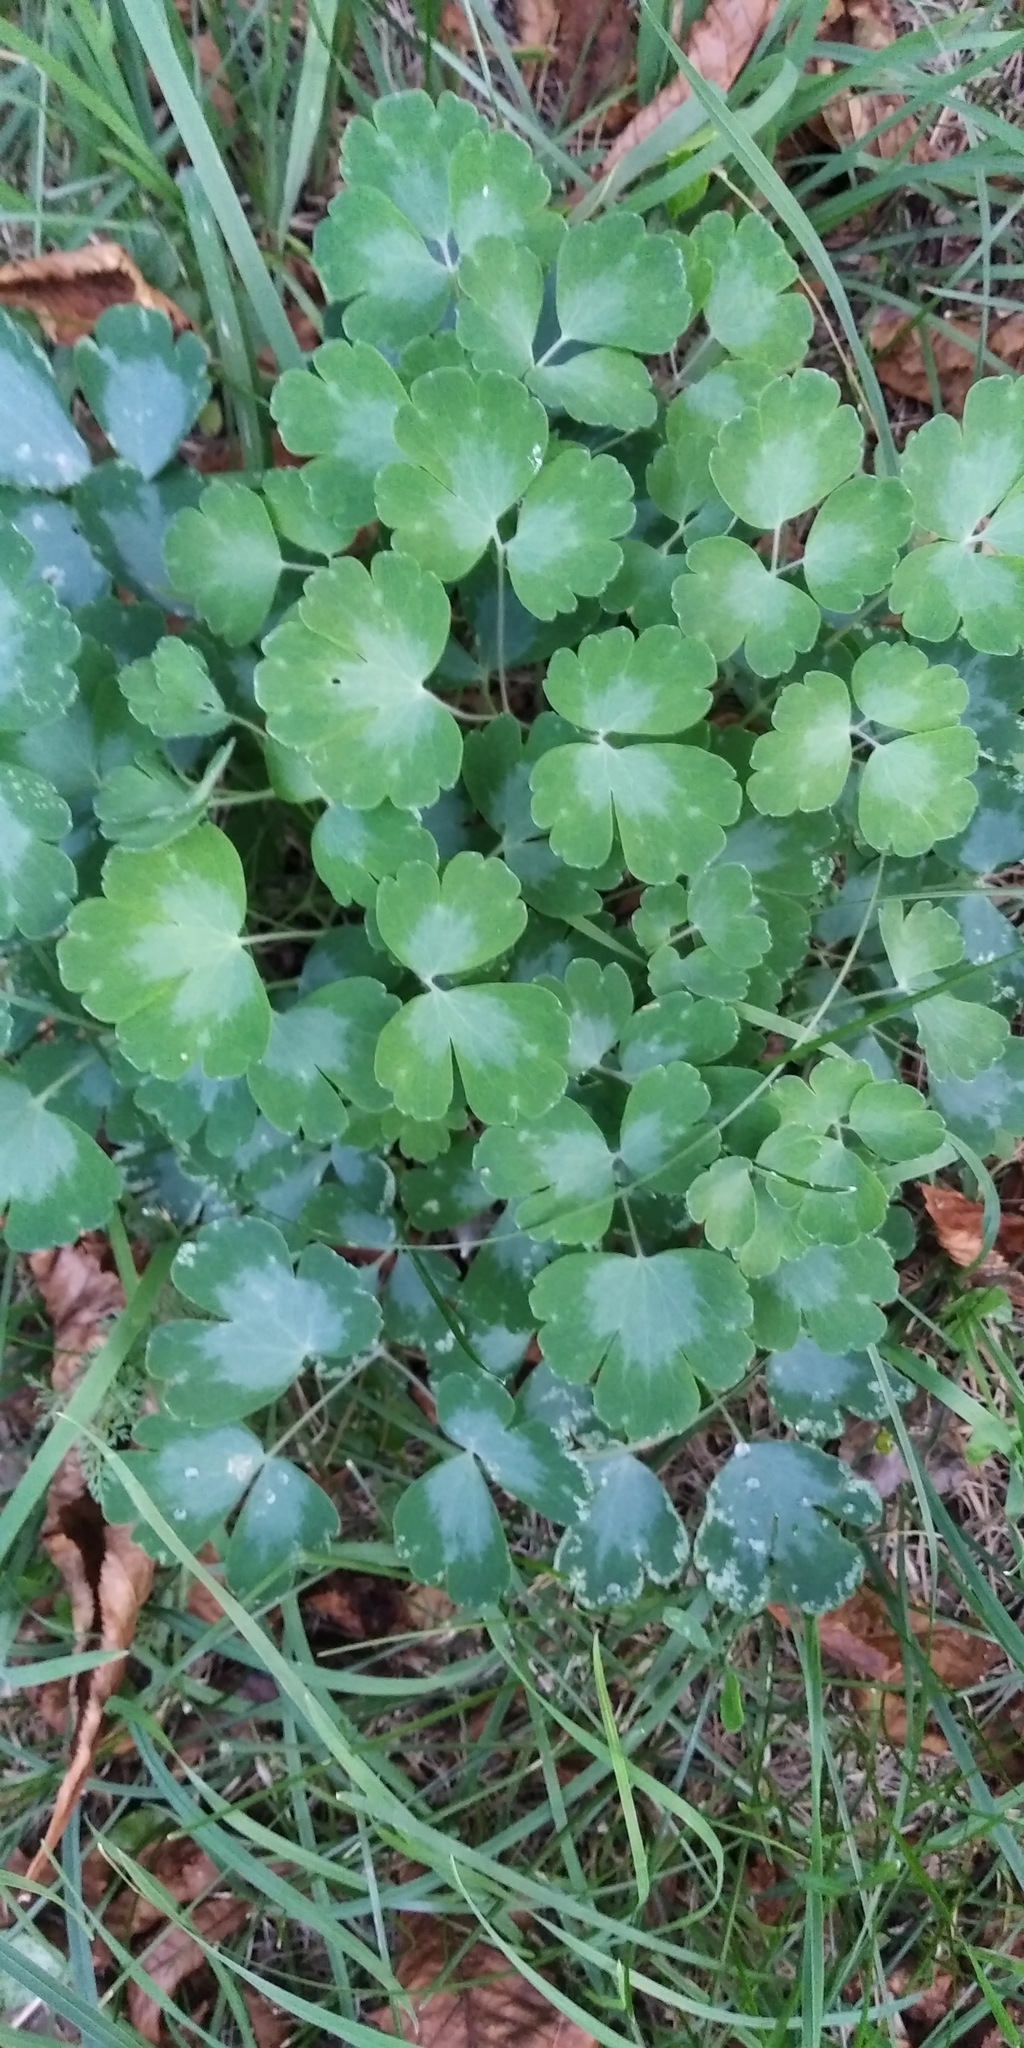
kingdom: Plantae
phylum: Tracheophyta
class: Magnoliopsida
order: Ranunculales
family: Ranunculaceae
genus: Aquilegia
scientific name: Aquilegia vulgaris
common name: Columbine
